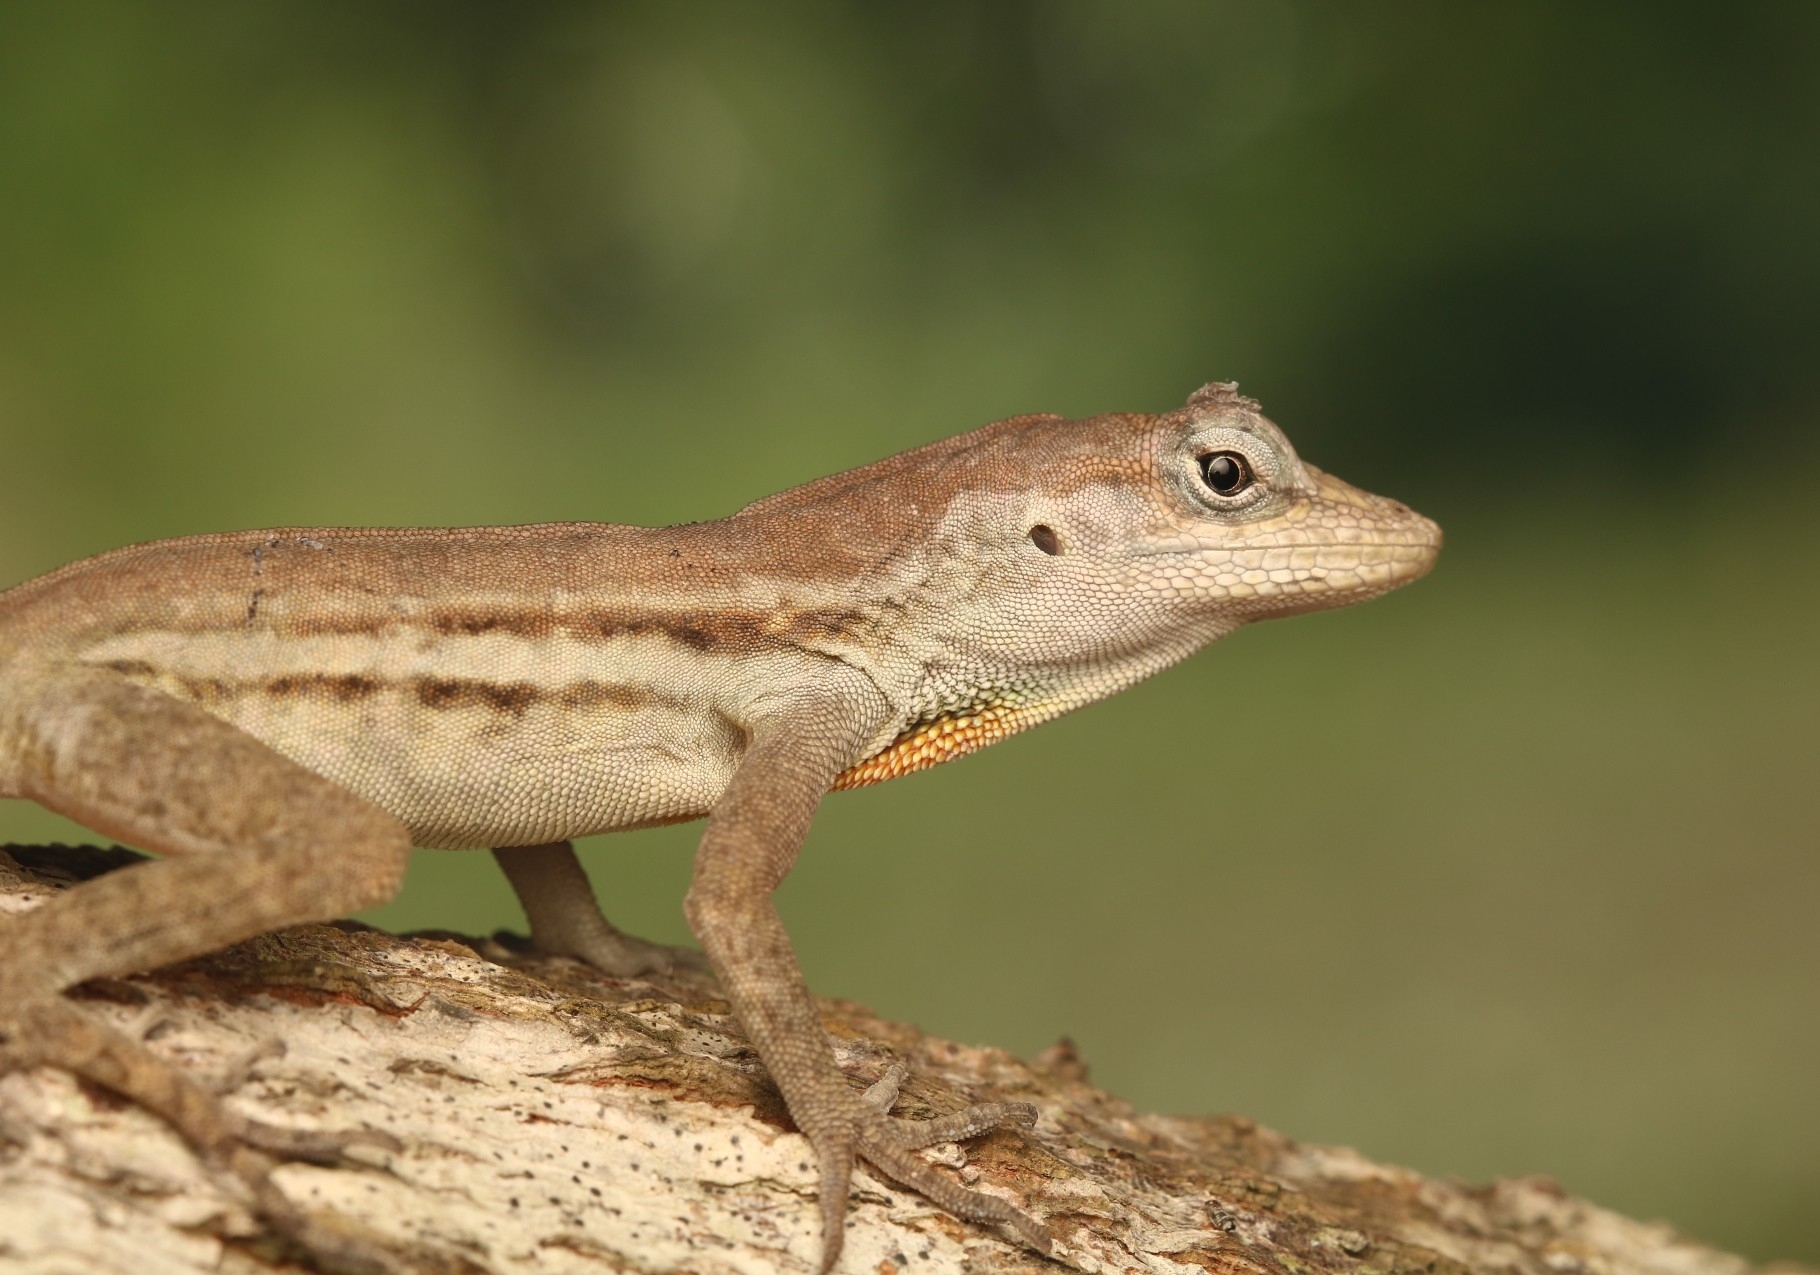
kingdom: Animalia
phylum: Chordata
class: Squamata
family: Dactyloidae
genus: Anolis
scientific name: Anolis lineatus
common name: Striped anole
